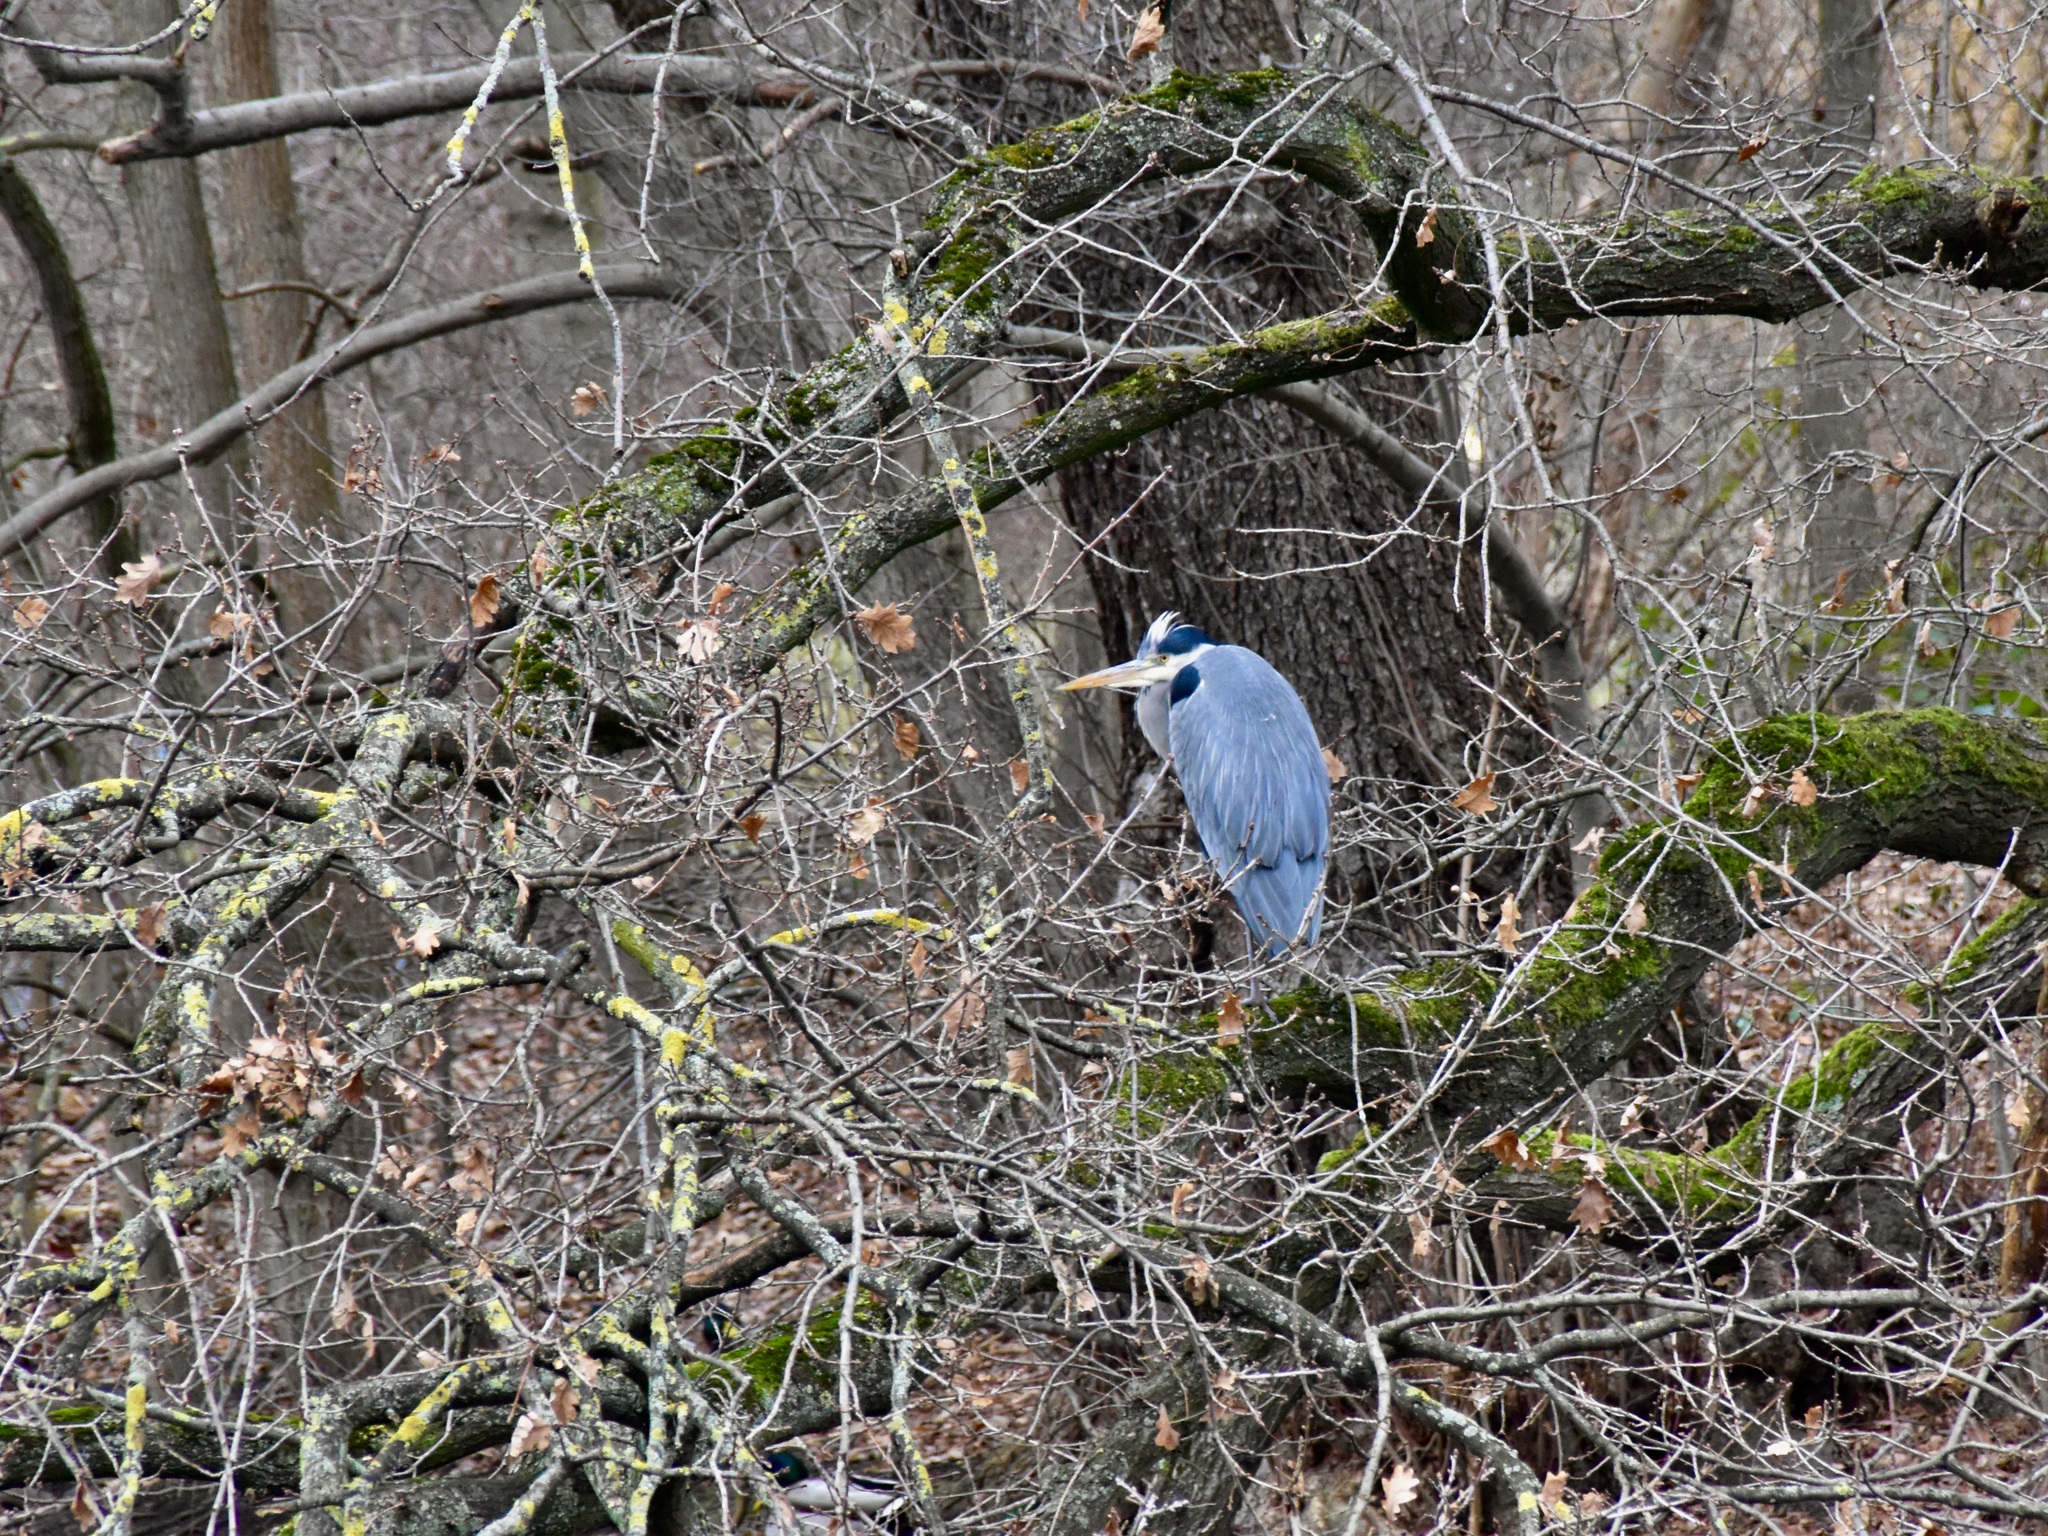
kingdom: Animalia
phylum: Chordata
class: Aves
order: Pelecaniformes
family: Ardeidae
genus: Ardea
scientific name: Ardea cinerea
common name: Grey heron
